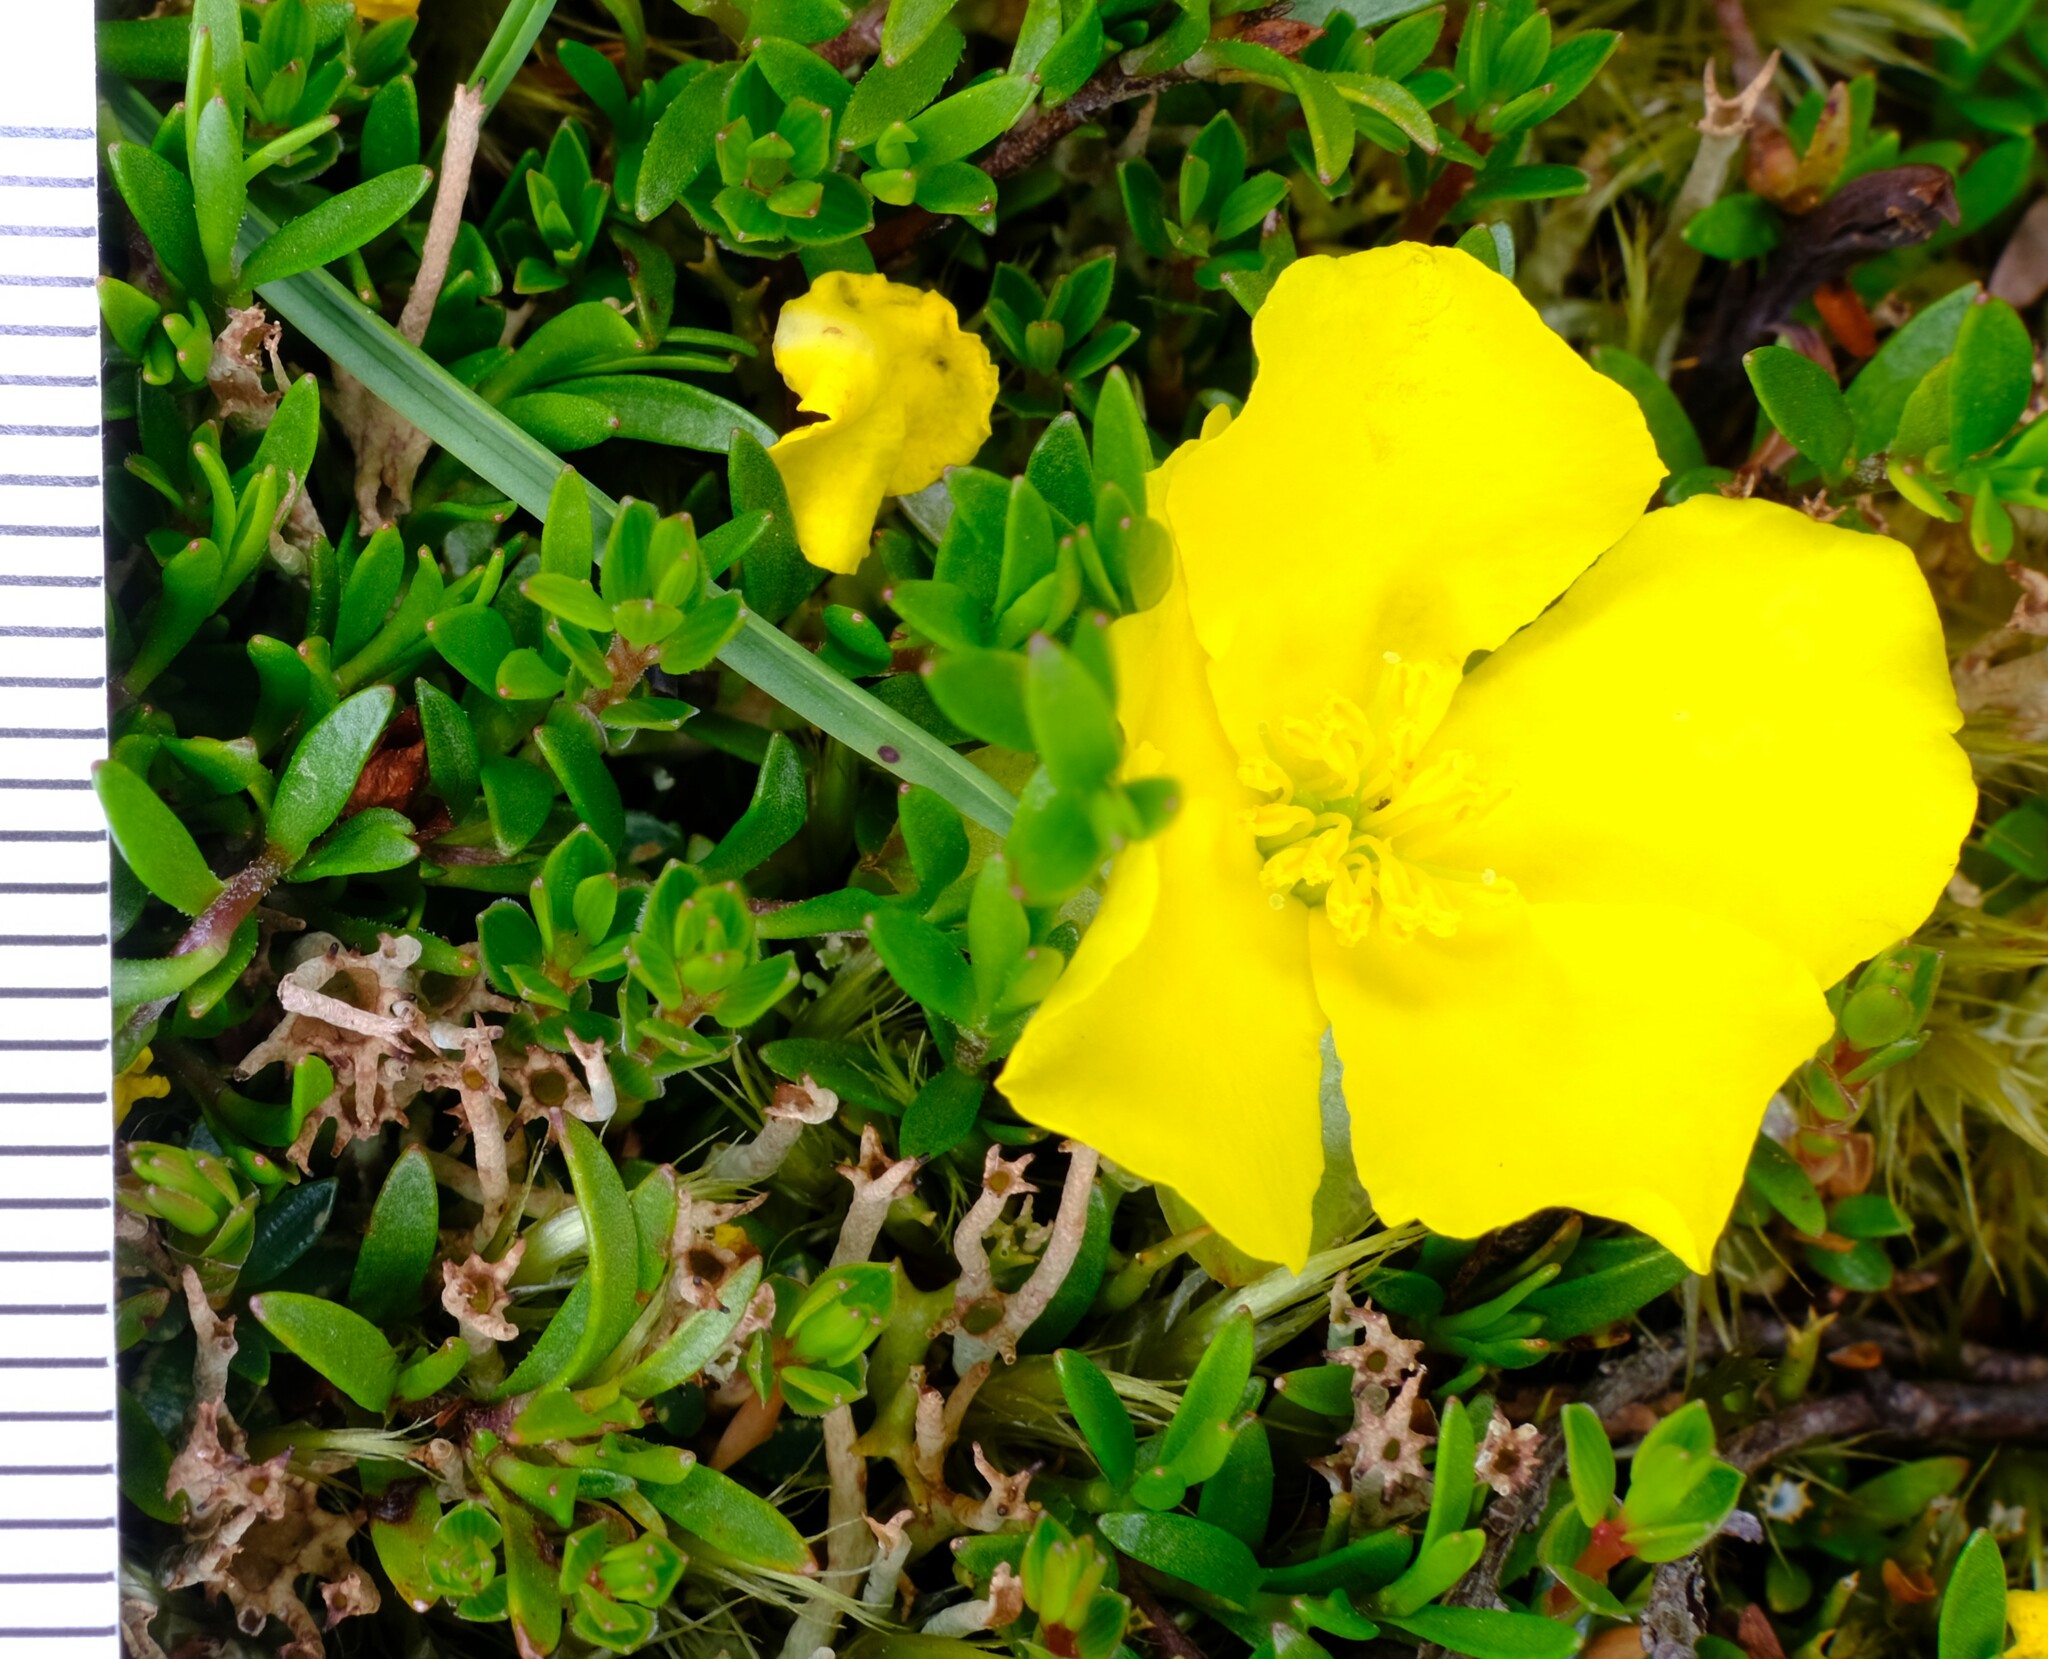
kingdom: Plantae
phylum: Tracheophyta
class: Magnoliopsida
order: Dilleniales
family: Dilleniaceae
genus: Hibbertia
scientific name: Hibbertia procumbens
